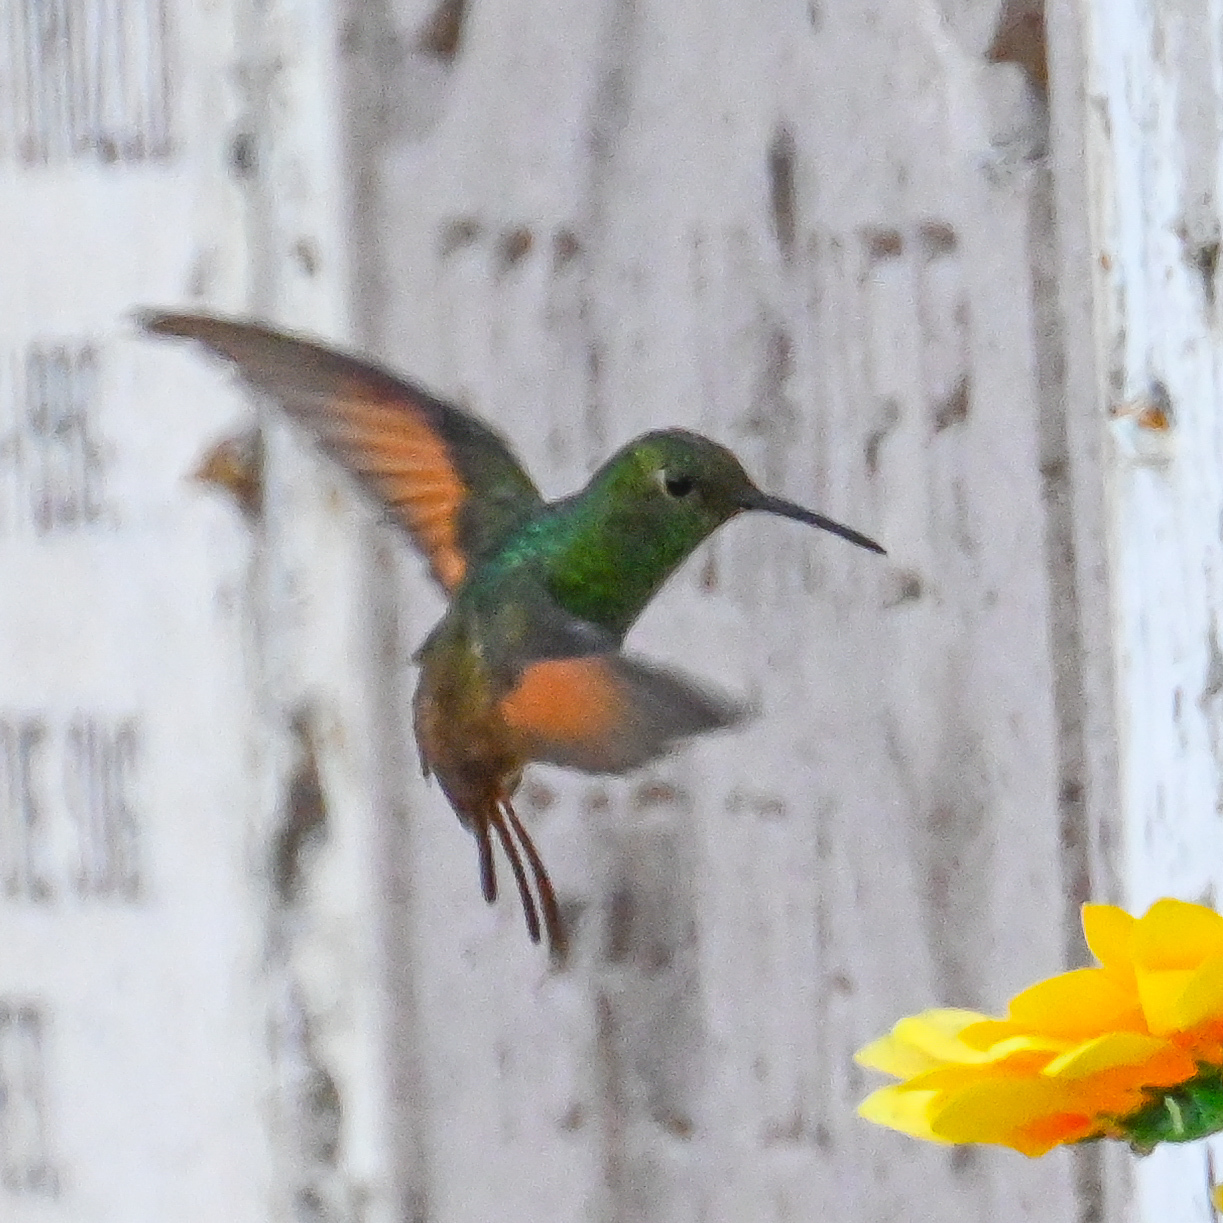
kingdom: Animalia
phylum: Chordata
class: Aves
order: Apodiformes
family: Trochilidae
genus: Saucerottia
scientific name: Saucerottia beryllina
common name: Berylline hummingbird
